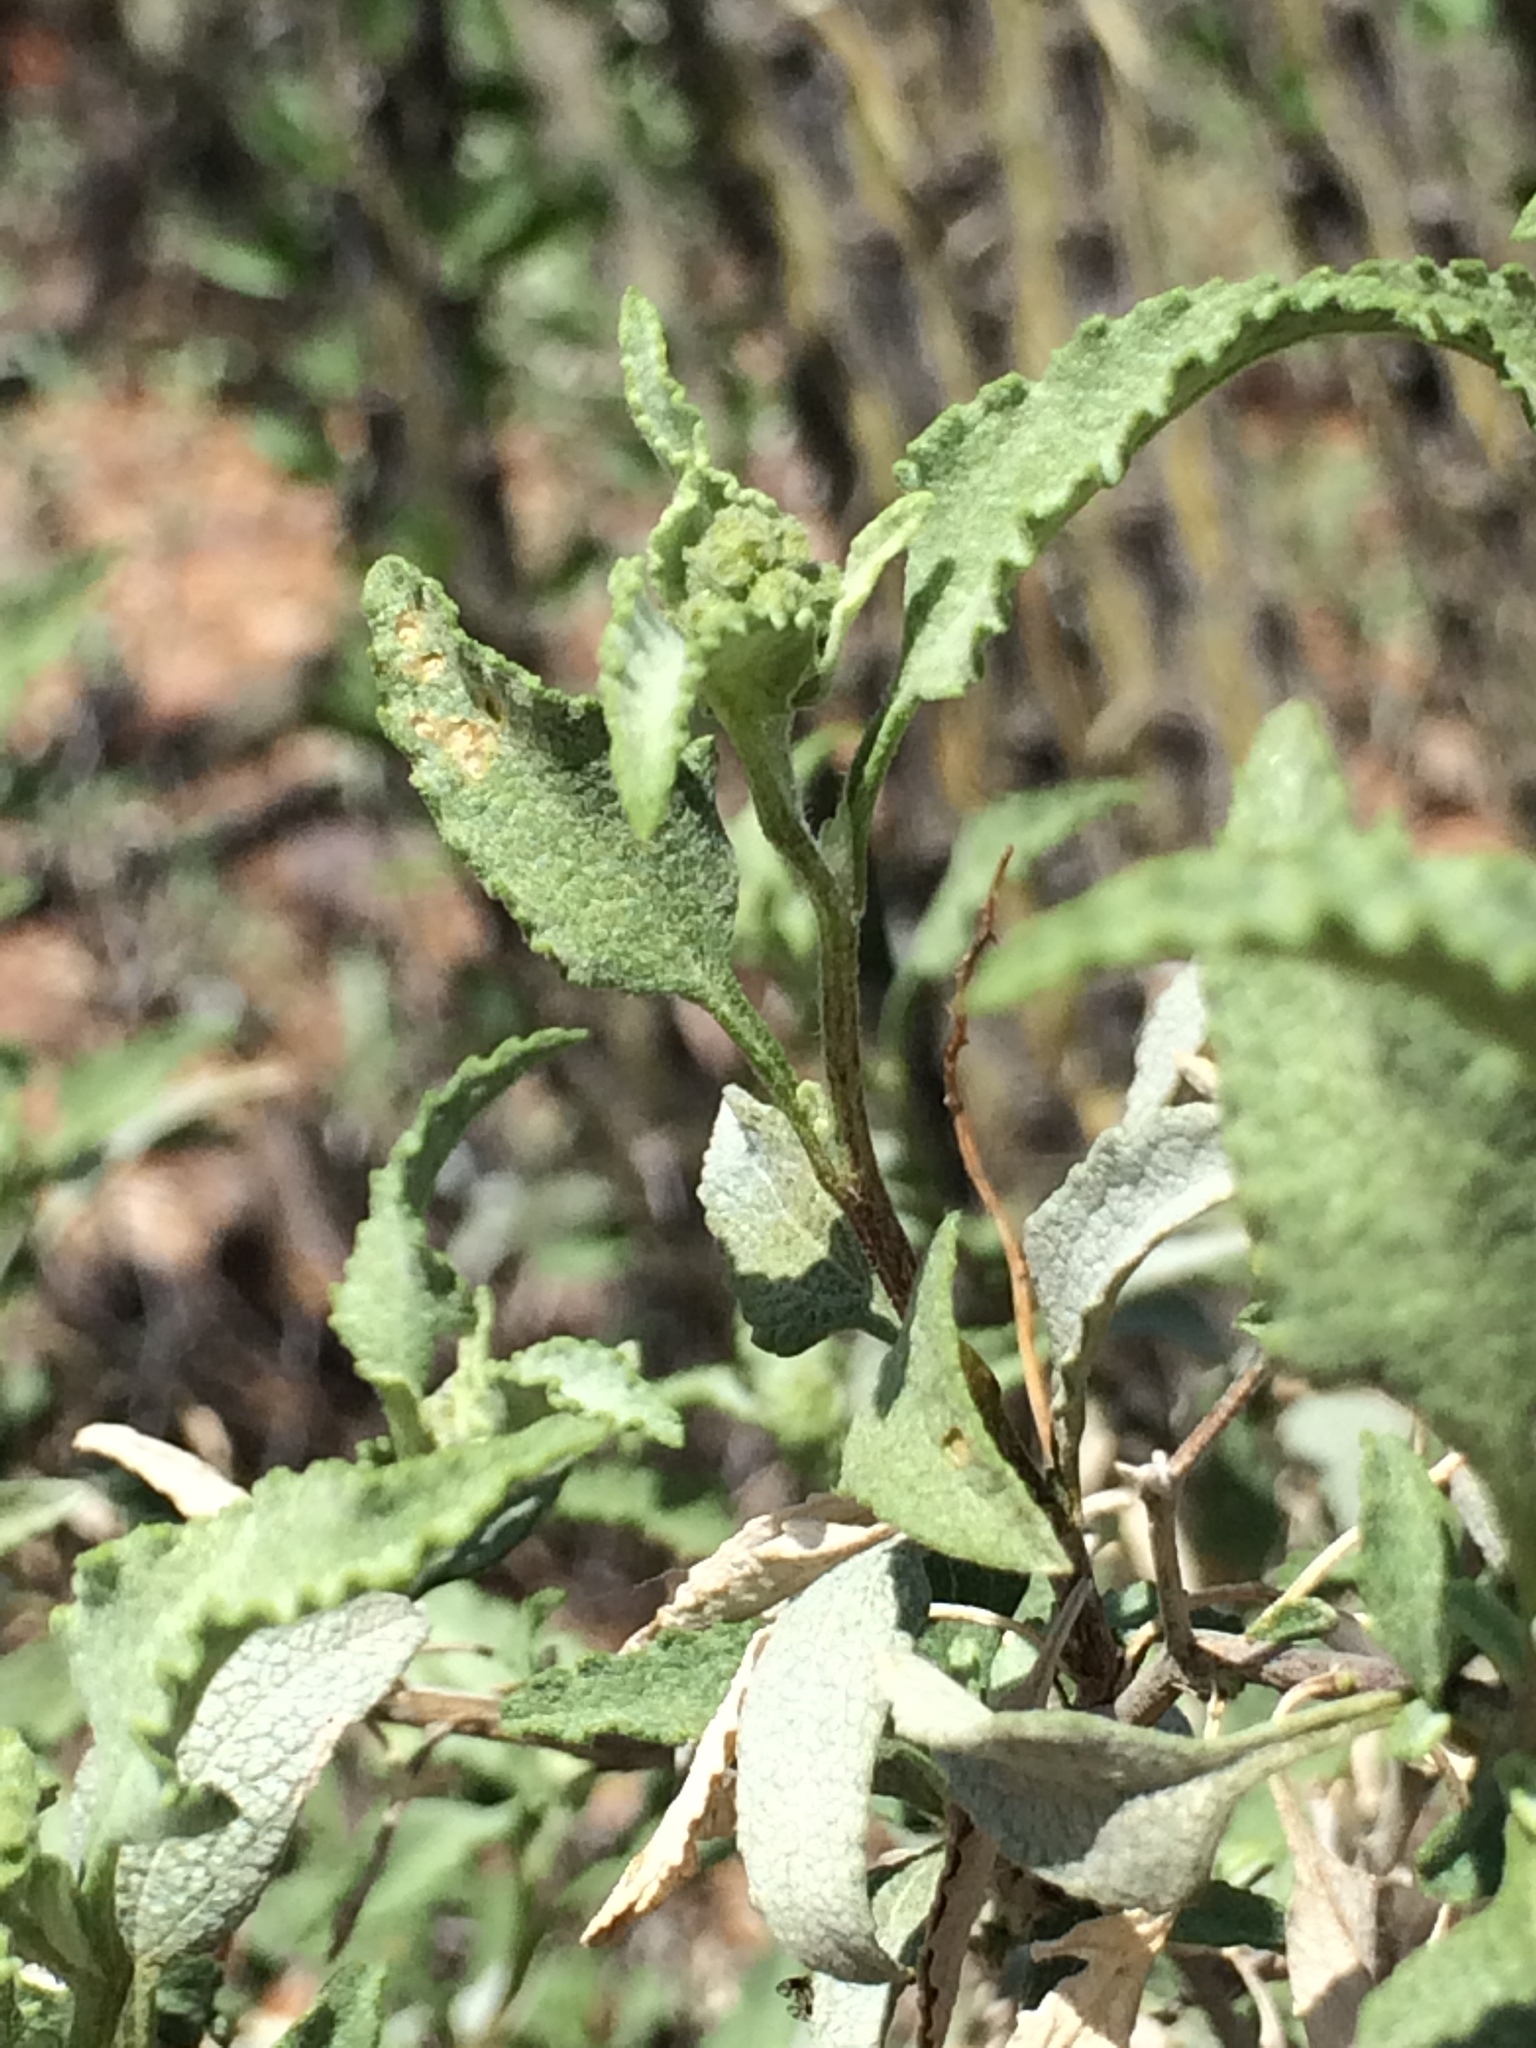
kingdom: Plantae
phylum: Tracheophyta
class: Magnoliopsida
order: Asterales
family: Asteraceae
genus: Ambrosia
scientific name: Ambrosia deltoidea
